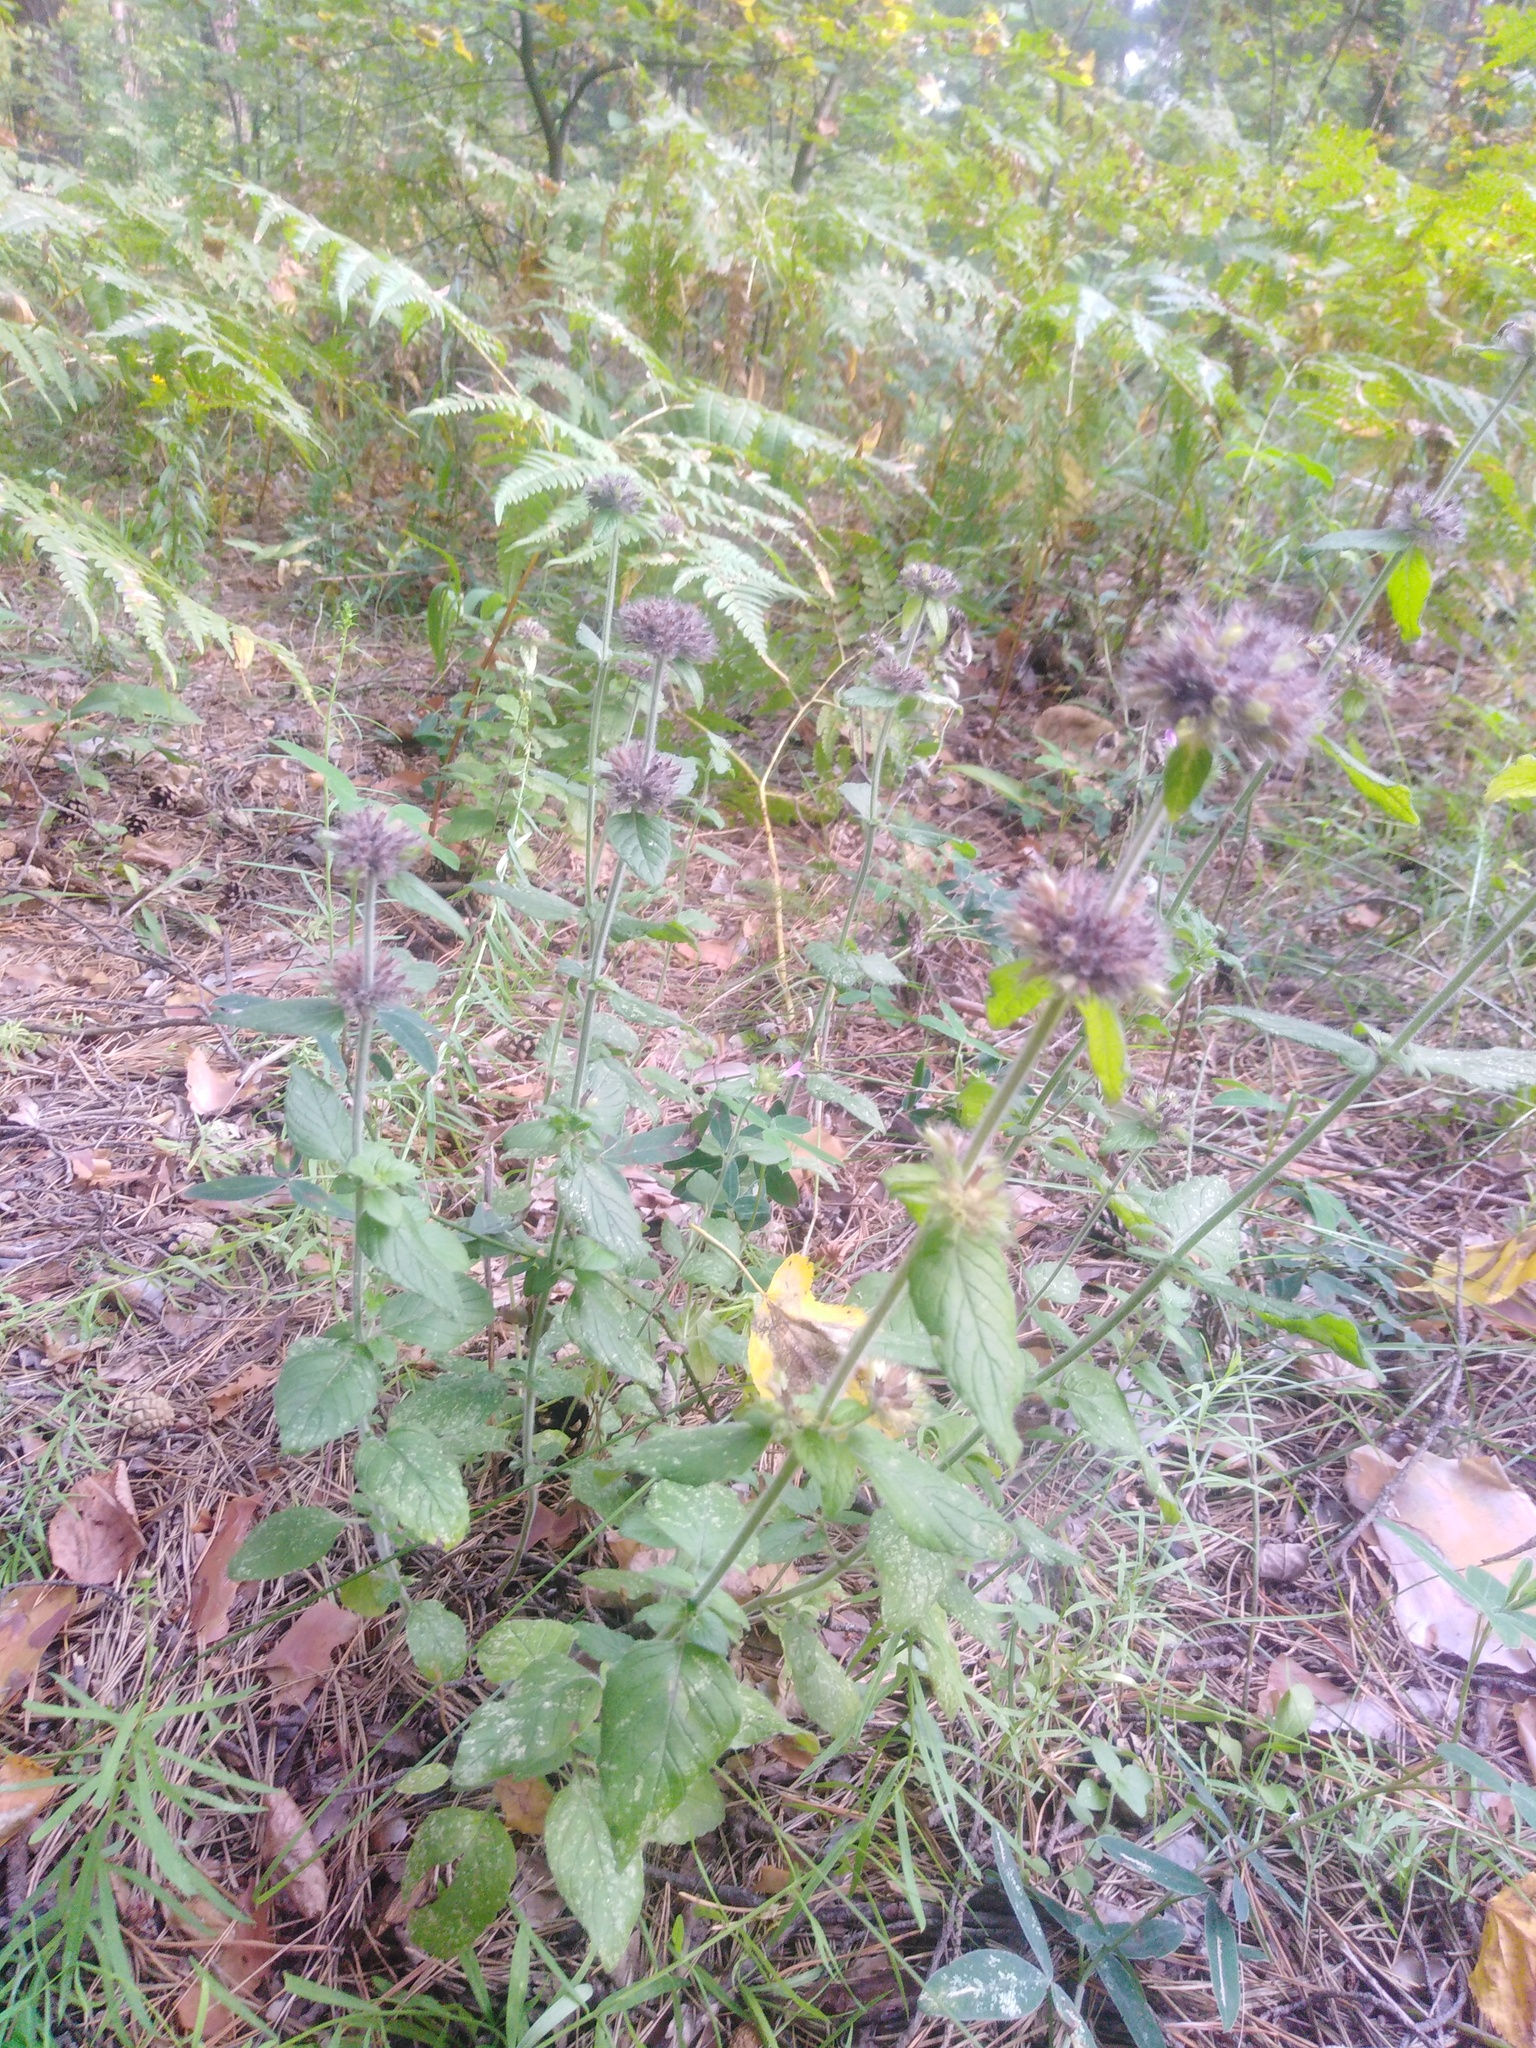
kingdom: Plantae
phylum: Tracheophyta
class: Magnoliopsida
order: Lamiales
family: Lamiaceae
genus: Clinopodium
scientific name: Clinopodium vulgare
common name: Wild basil
